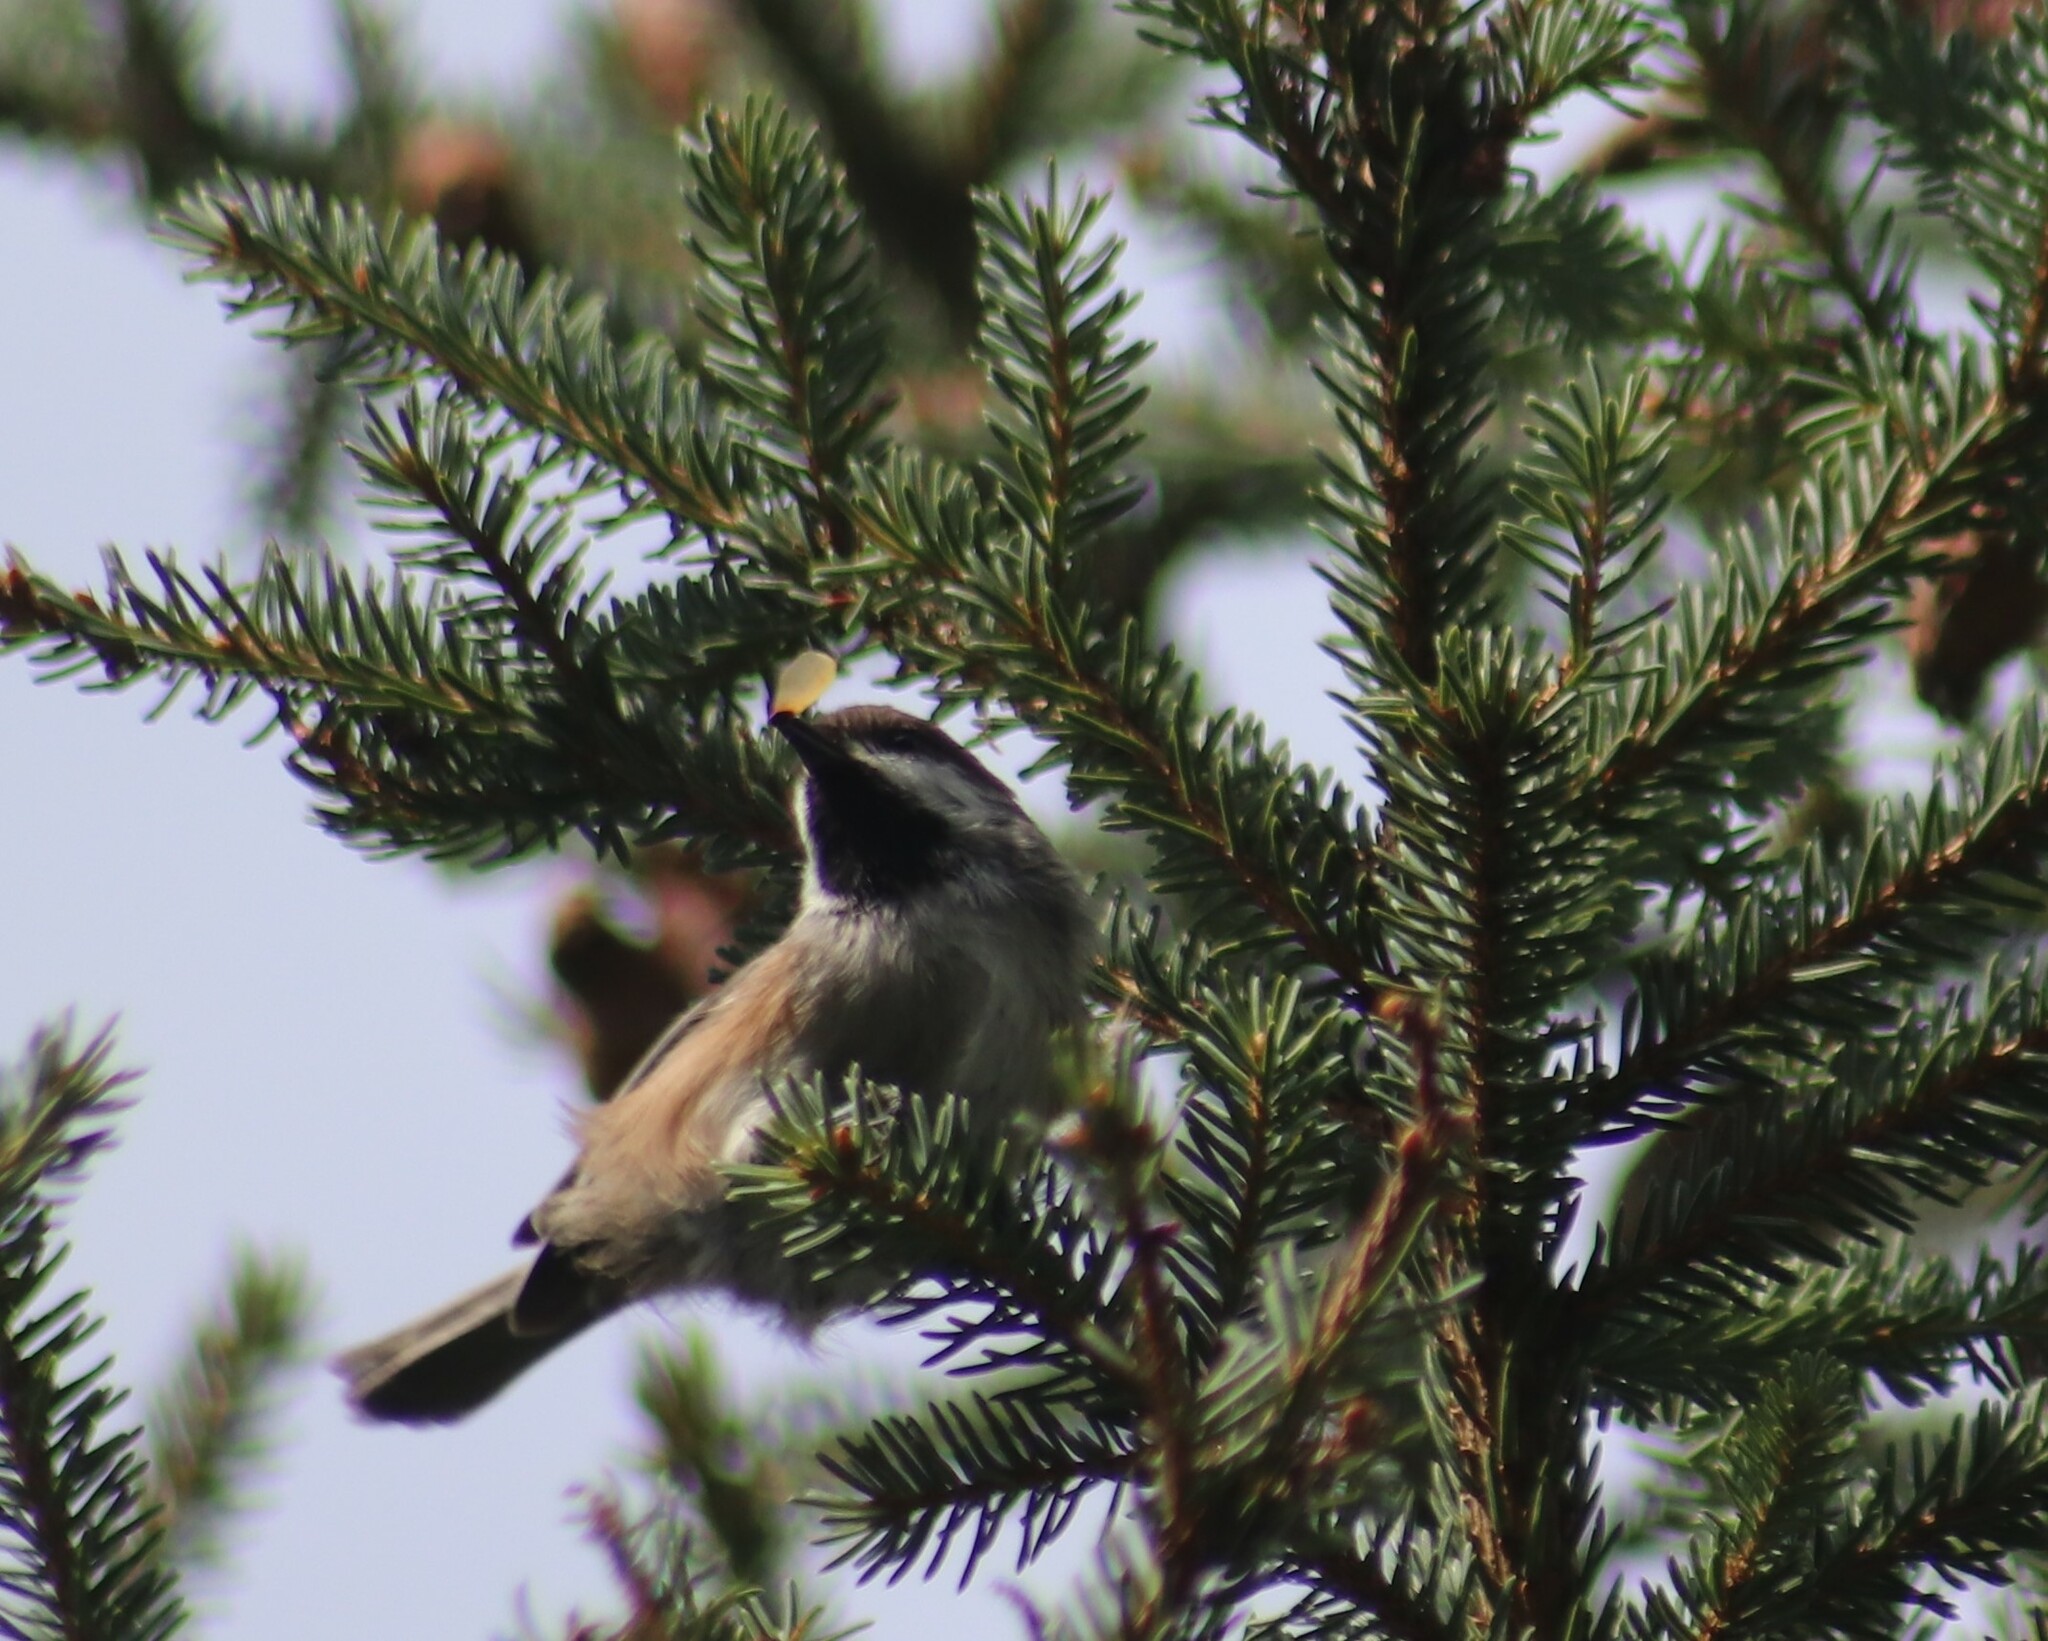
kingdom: Animalia
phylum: Chordata
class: Aves
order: Passeriformes
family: Paridae
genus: Poecile
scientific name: Poecile hudsonicus
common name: Boreal chickadee
